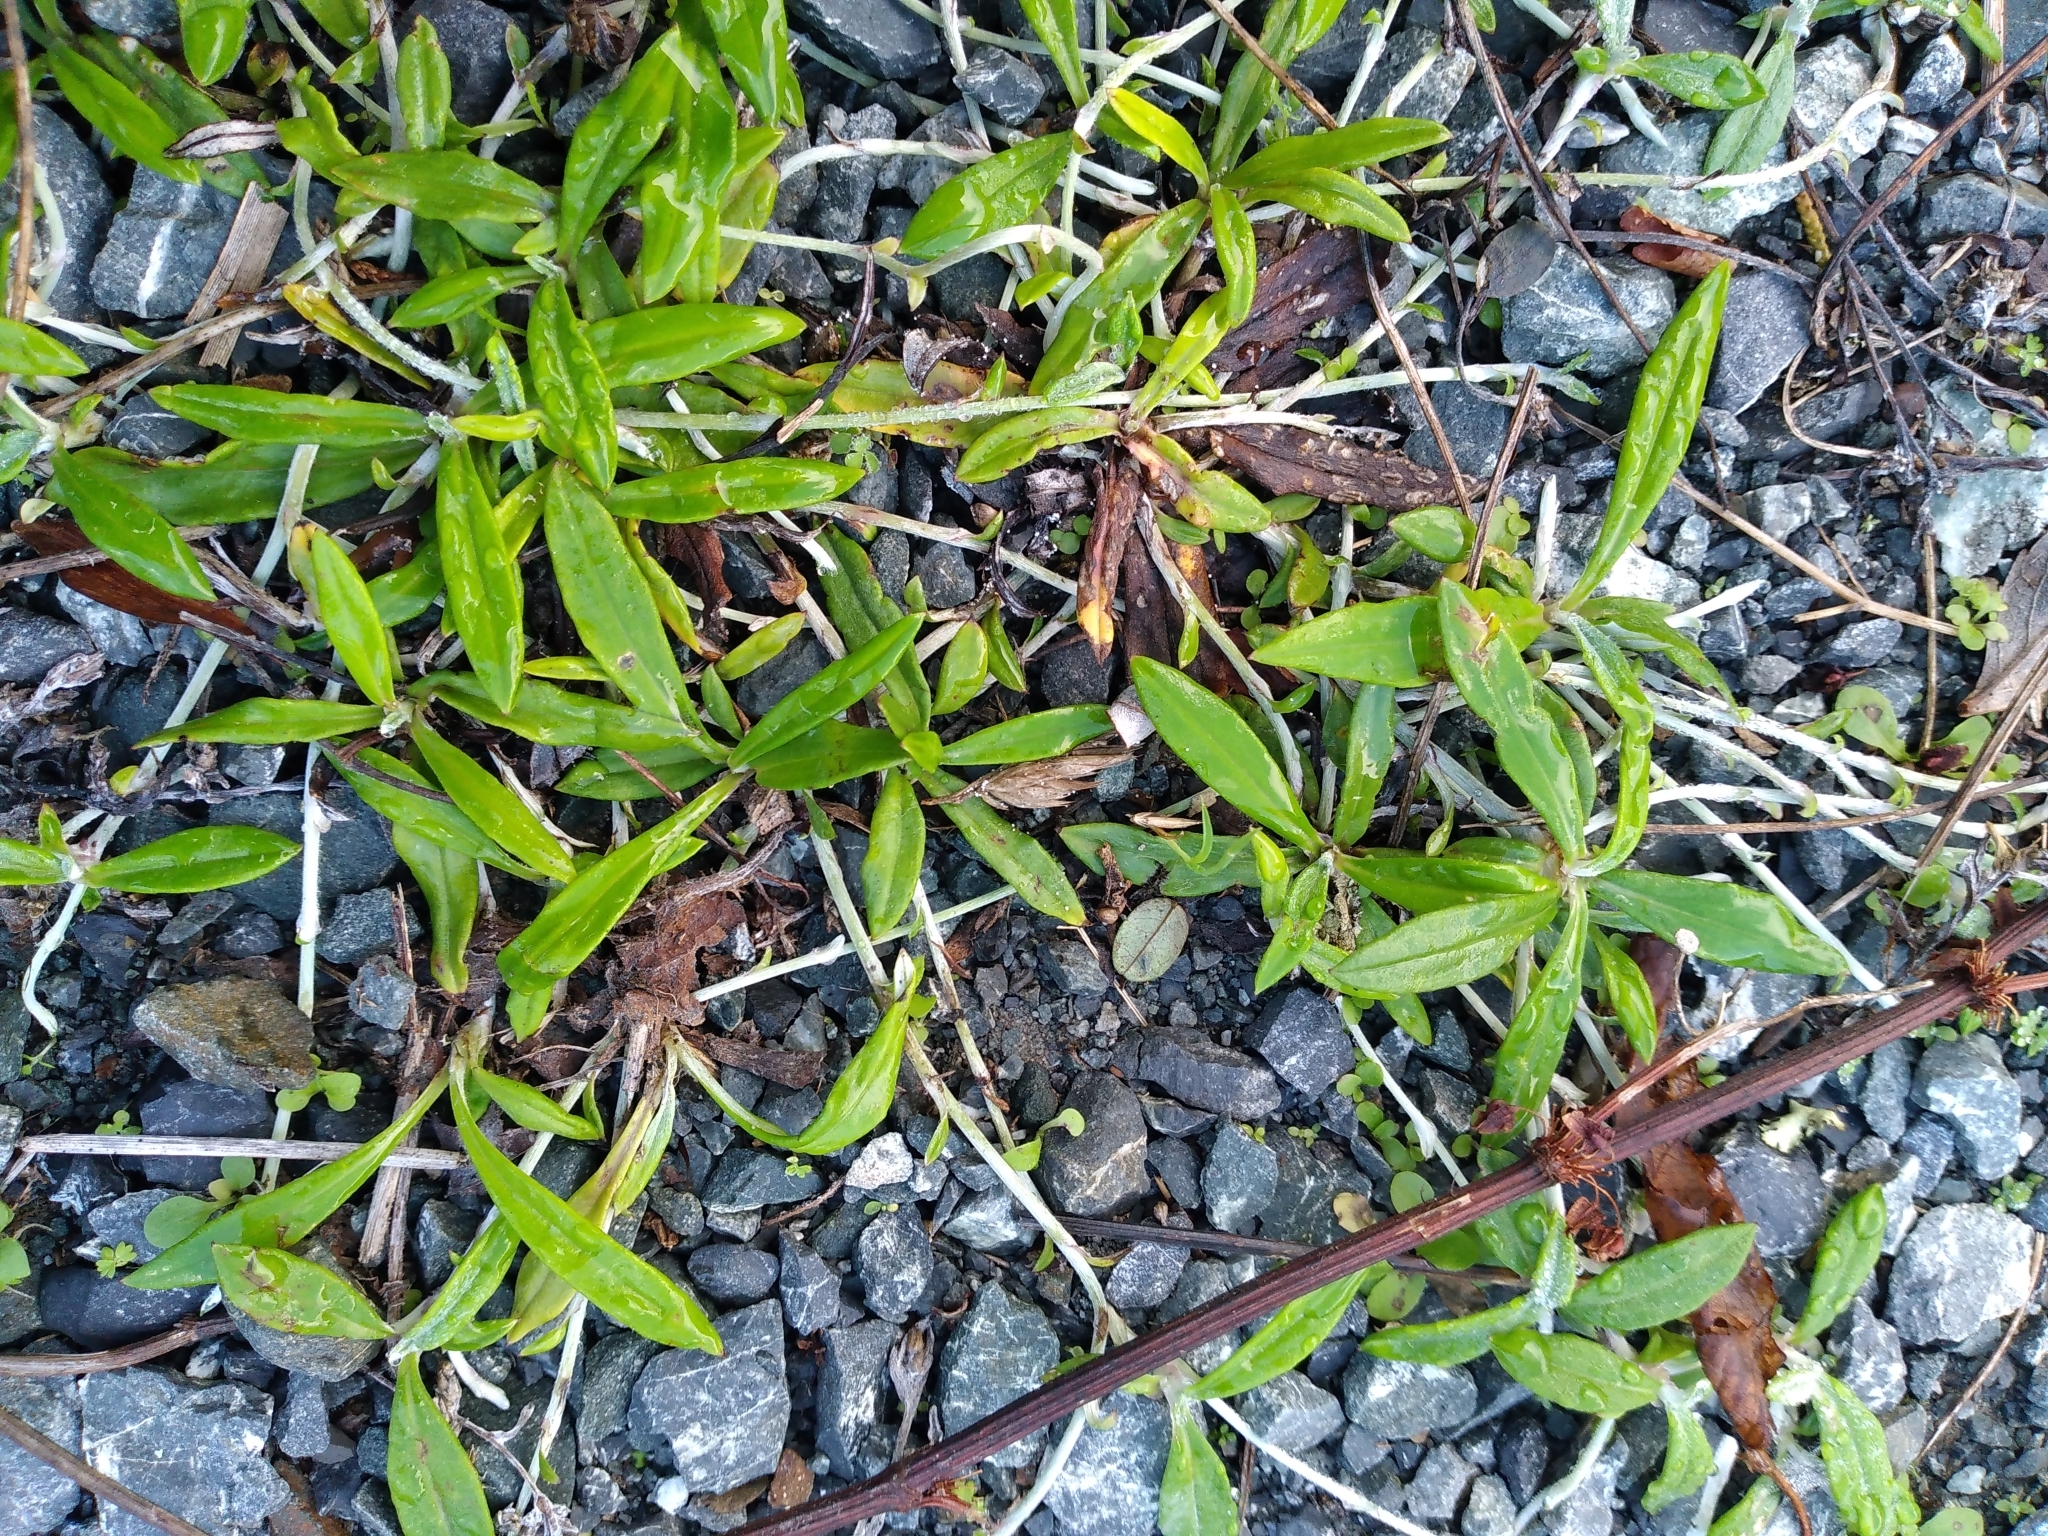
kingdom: Plantae
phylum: Tracheophyta
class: Magnoliopsida
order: Asterales
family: Asteraceae
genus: Euchiton
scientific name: Euchiton sphaericus
